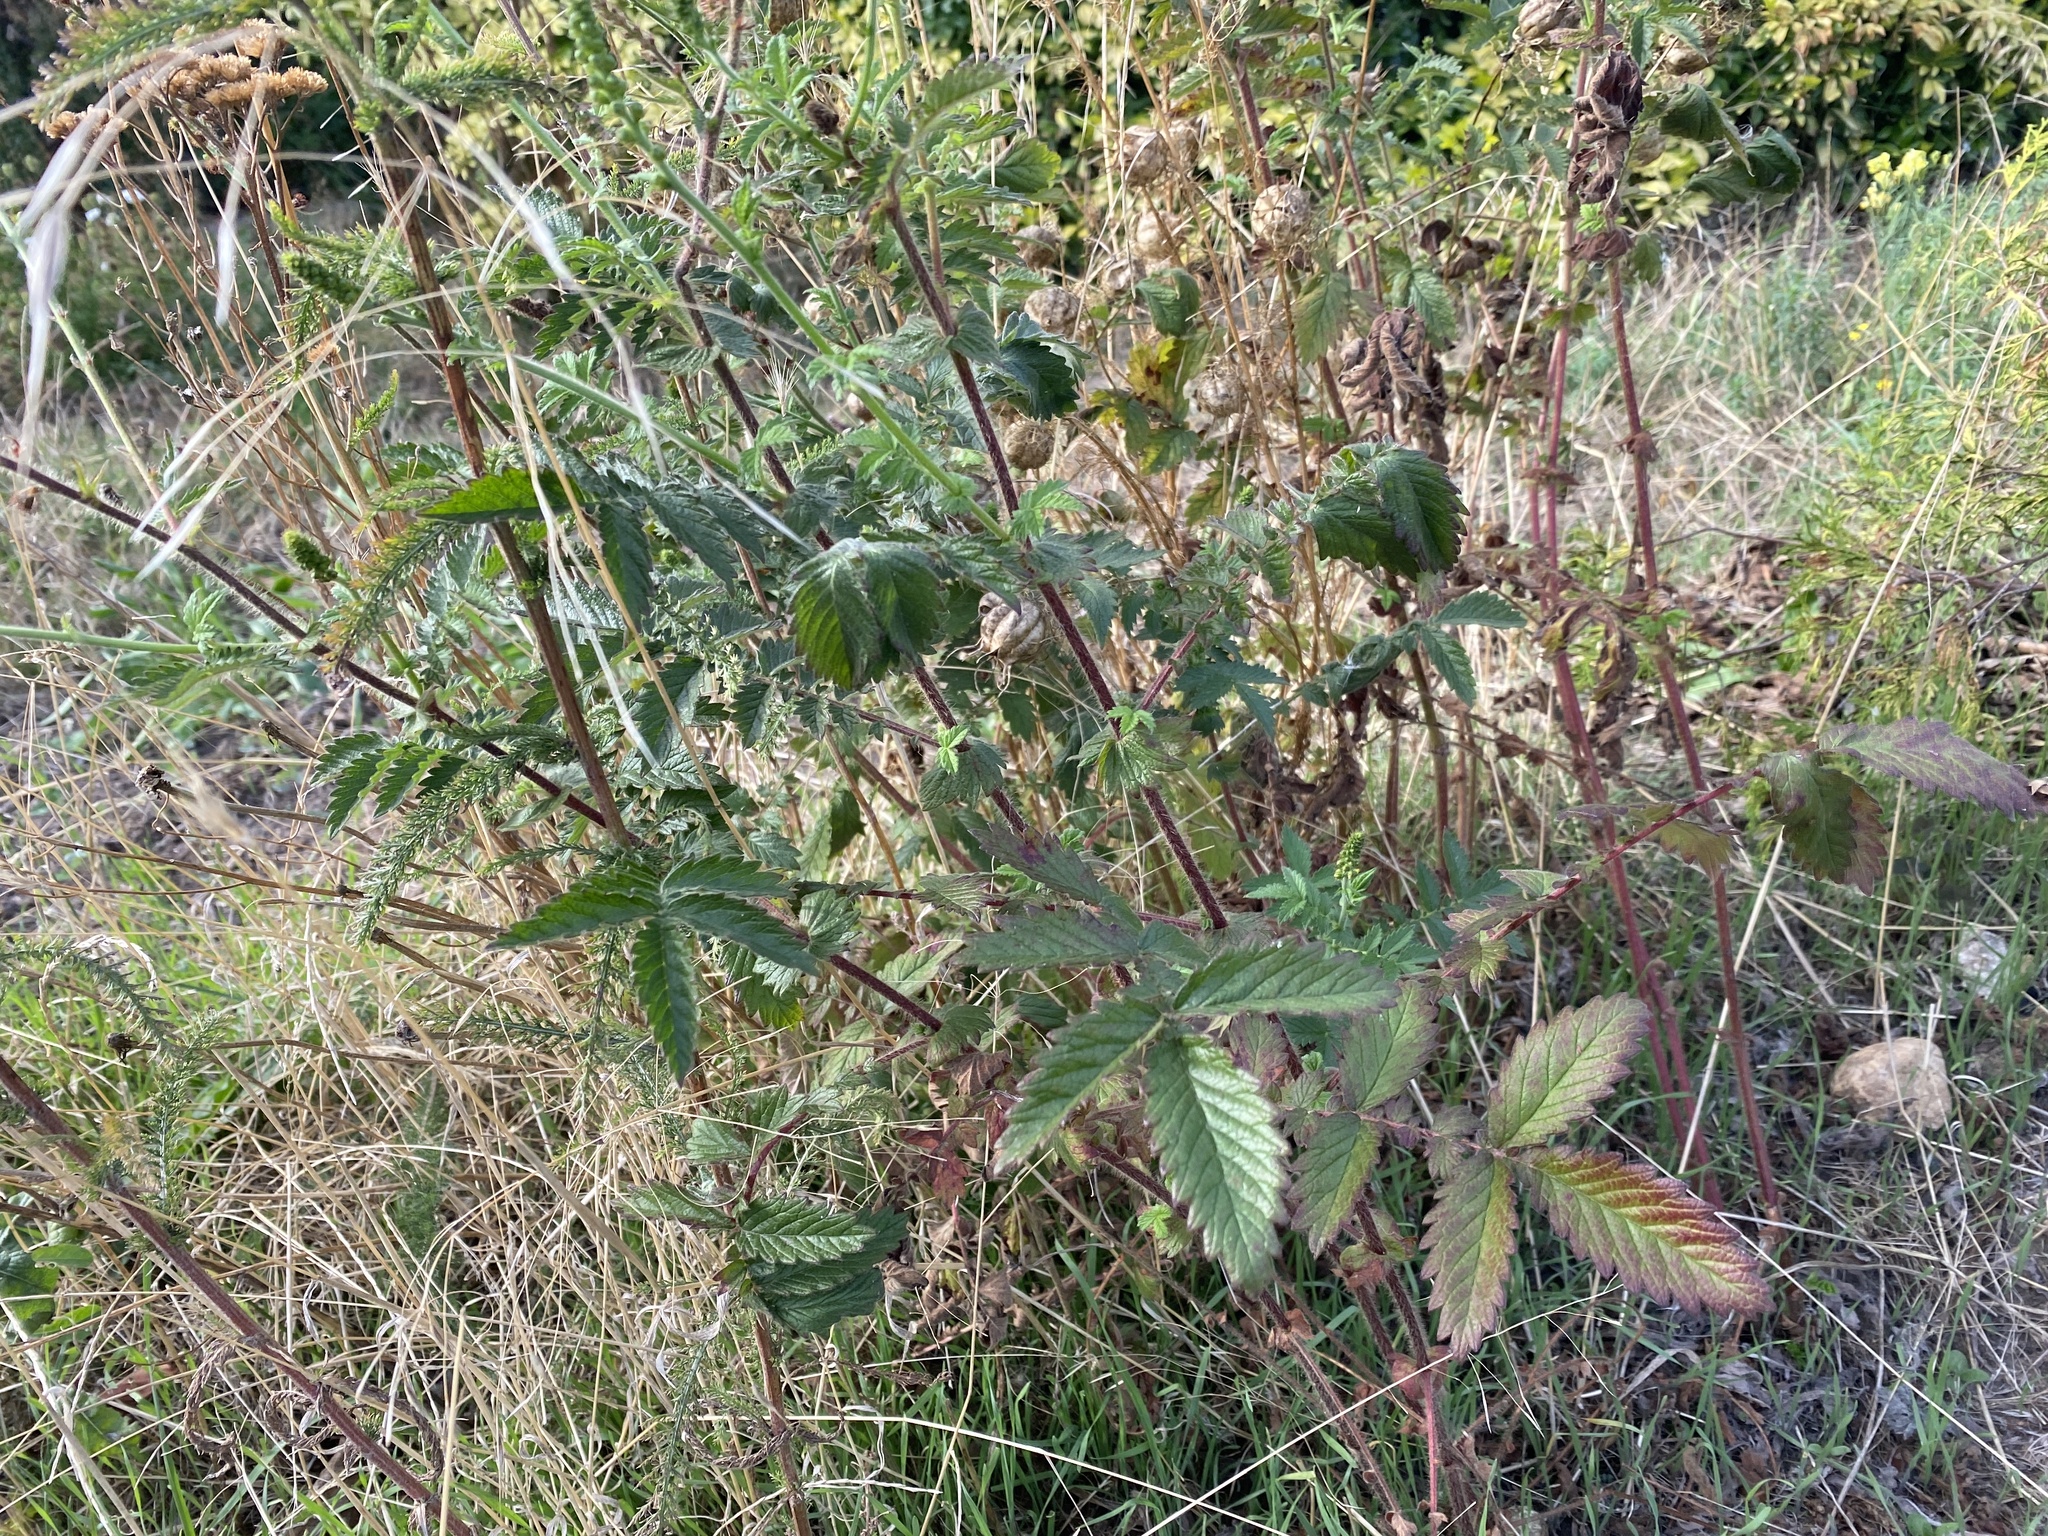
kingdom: Plantae
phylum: Tracheophyta
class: Magnoliopsida
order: Rosales
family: Rosaceae
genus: Agrimonia
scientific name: Agrimonia eupatoria
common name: Agrimony
